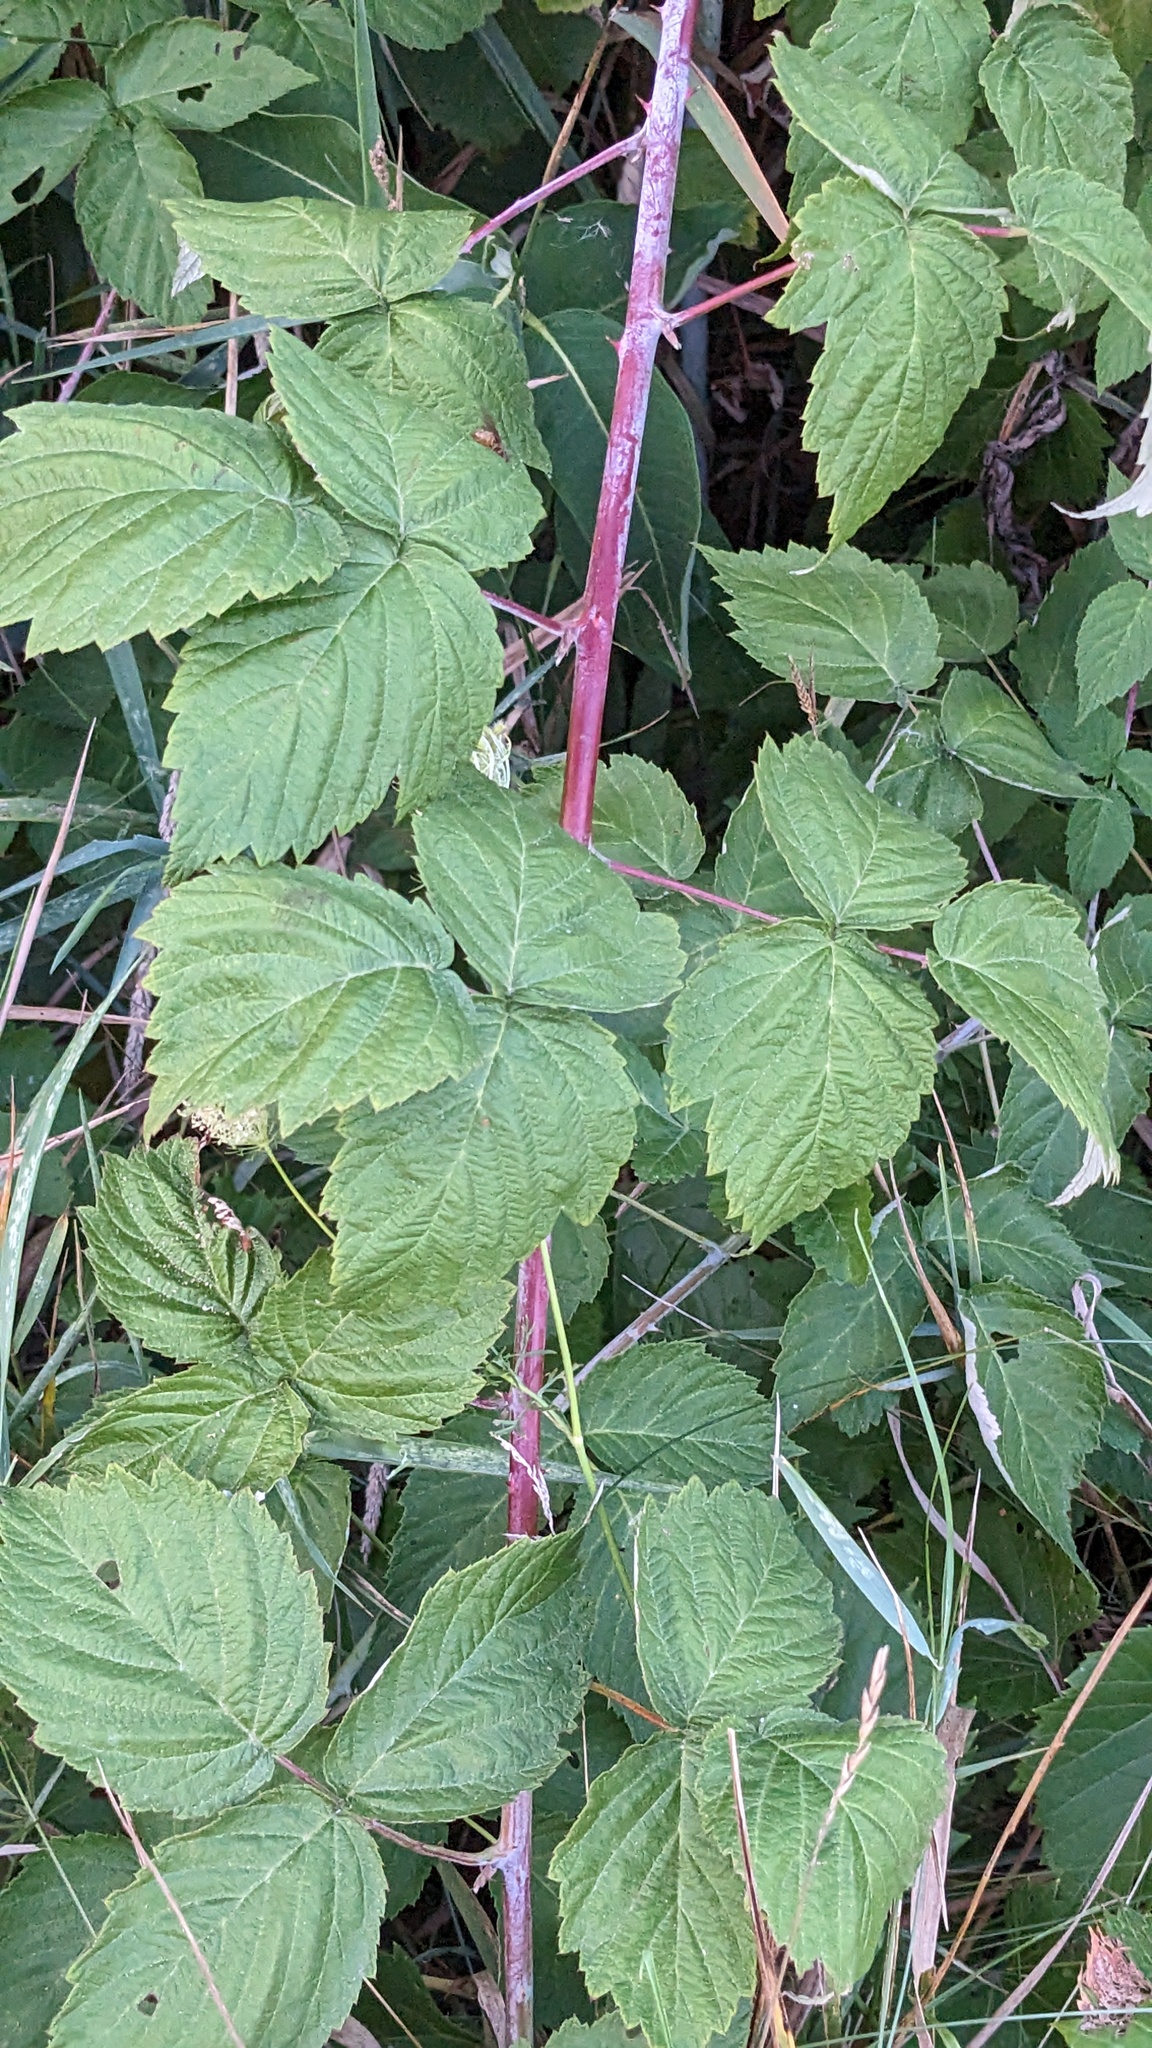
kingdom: Plantae
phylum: Tracheophyta
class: Magnoliopsida
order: Rosales
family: Rosaceae
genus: Rubus
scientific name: Rubus occidentalis
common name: Black raspberry
